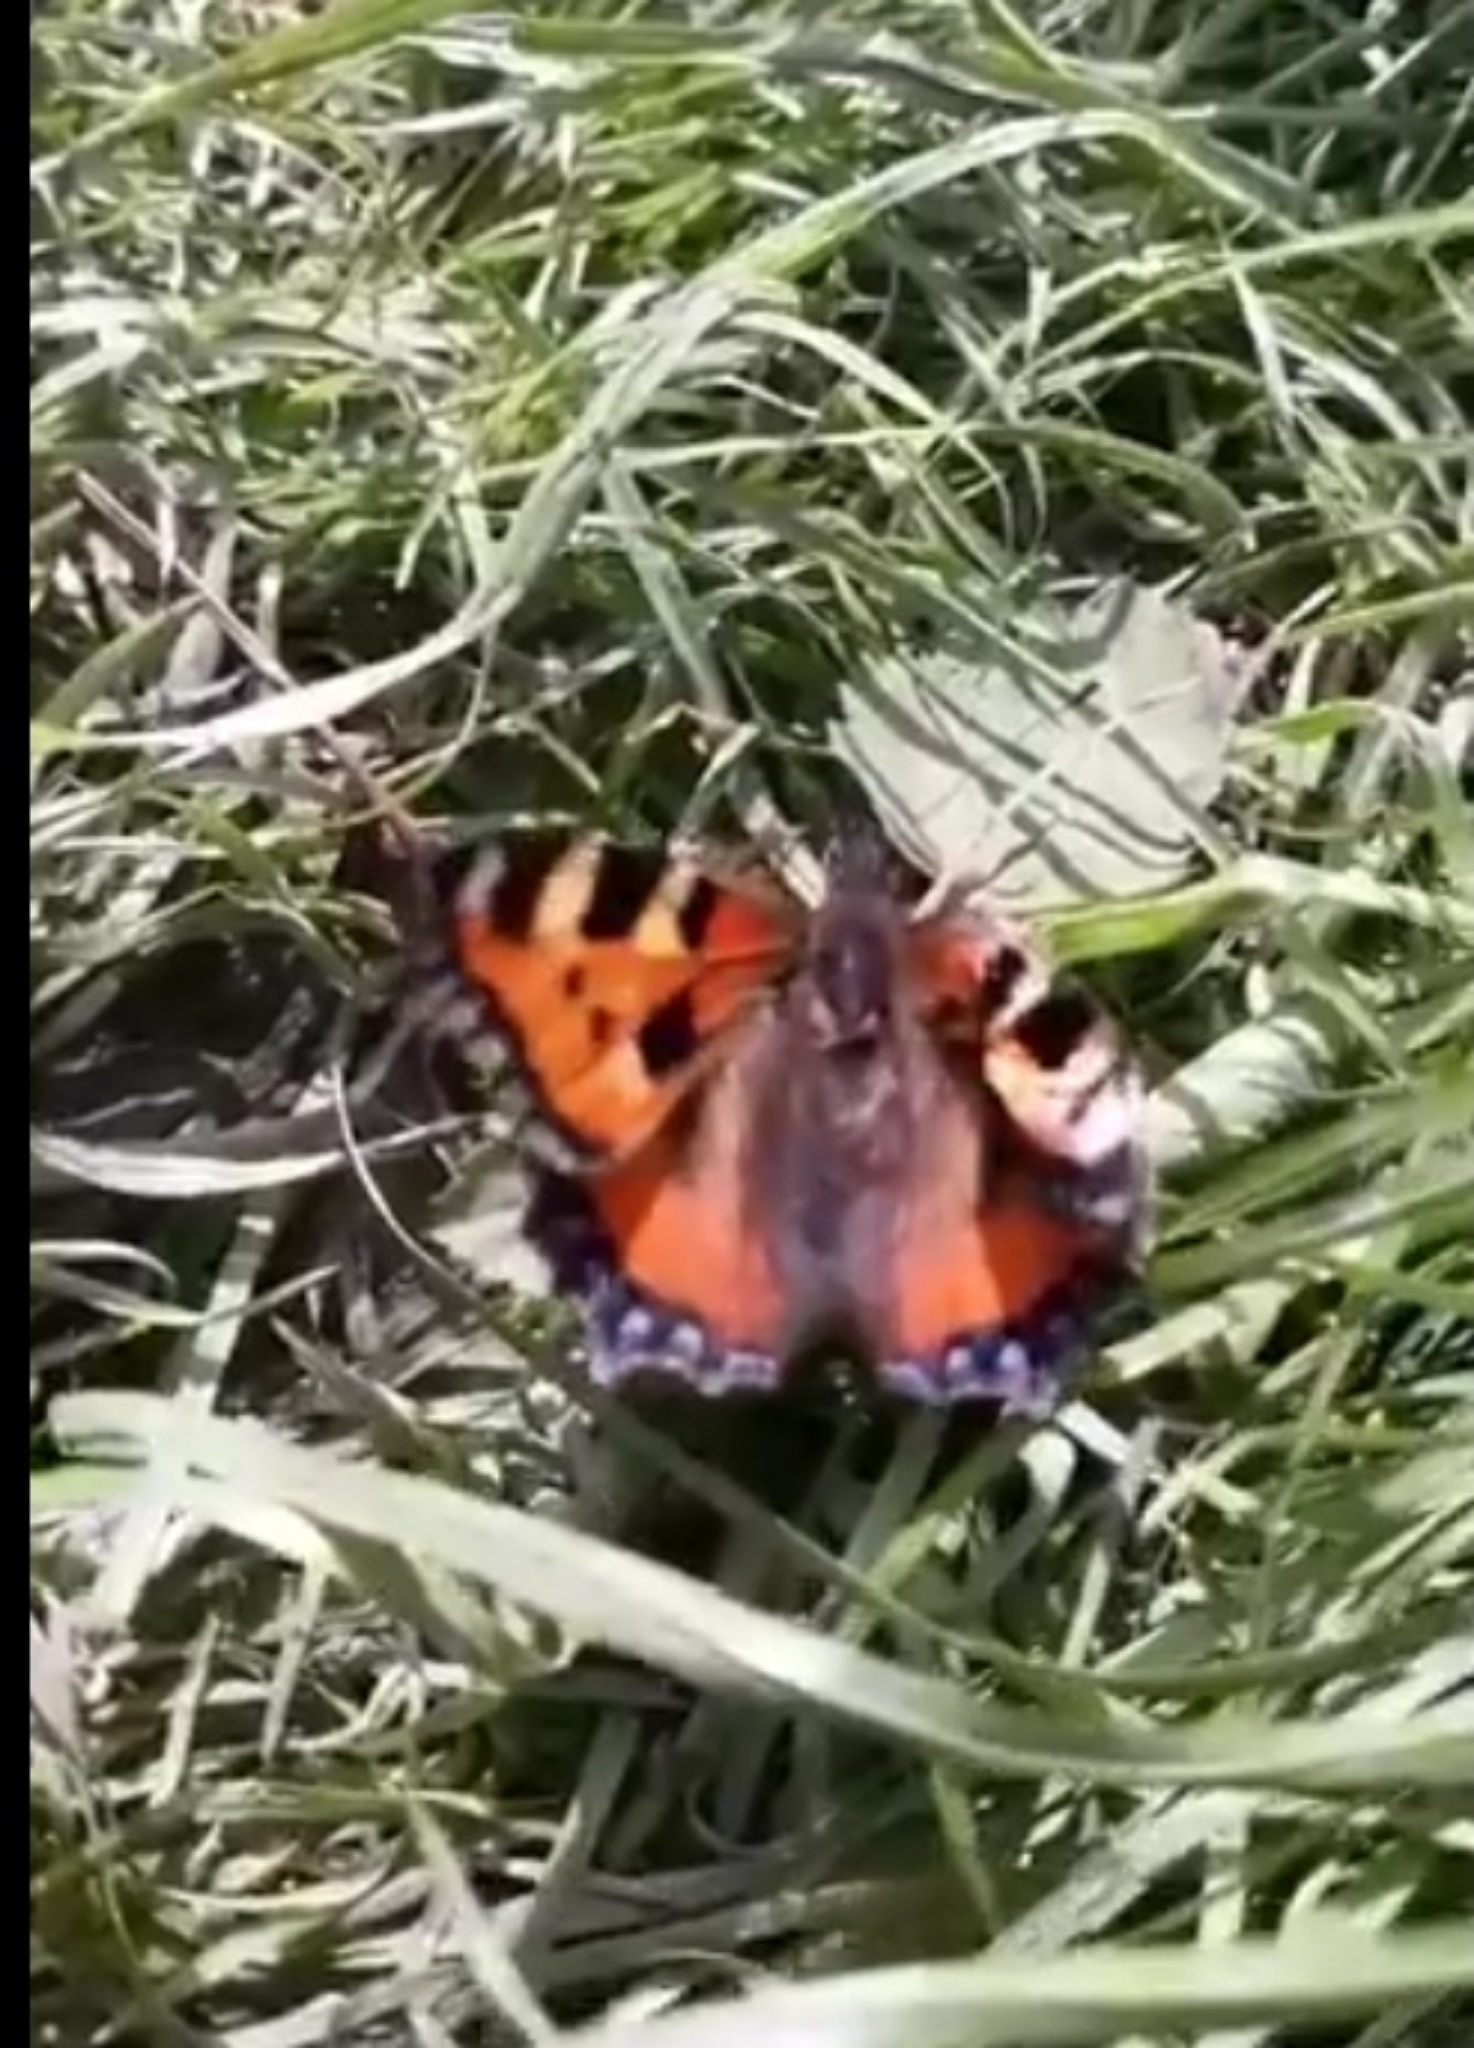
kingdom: Animalia
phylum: Arthropoda
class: Insecta
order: Lepidoptera
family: Nymphalidae
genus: Aglais
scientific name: Aglais urticae
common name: Small tortoiseshell
